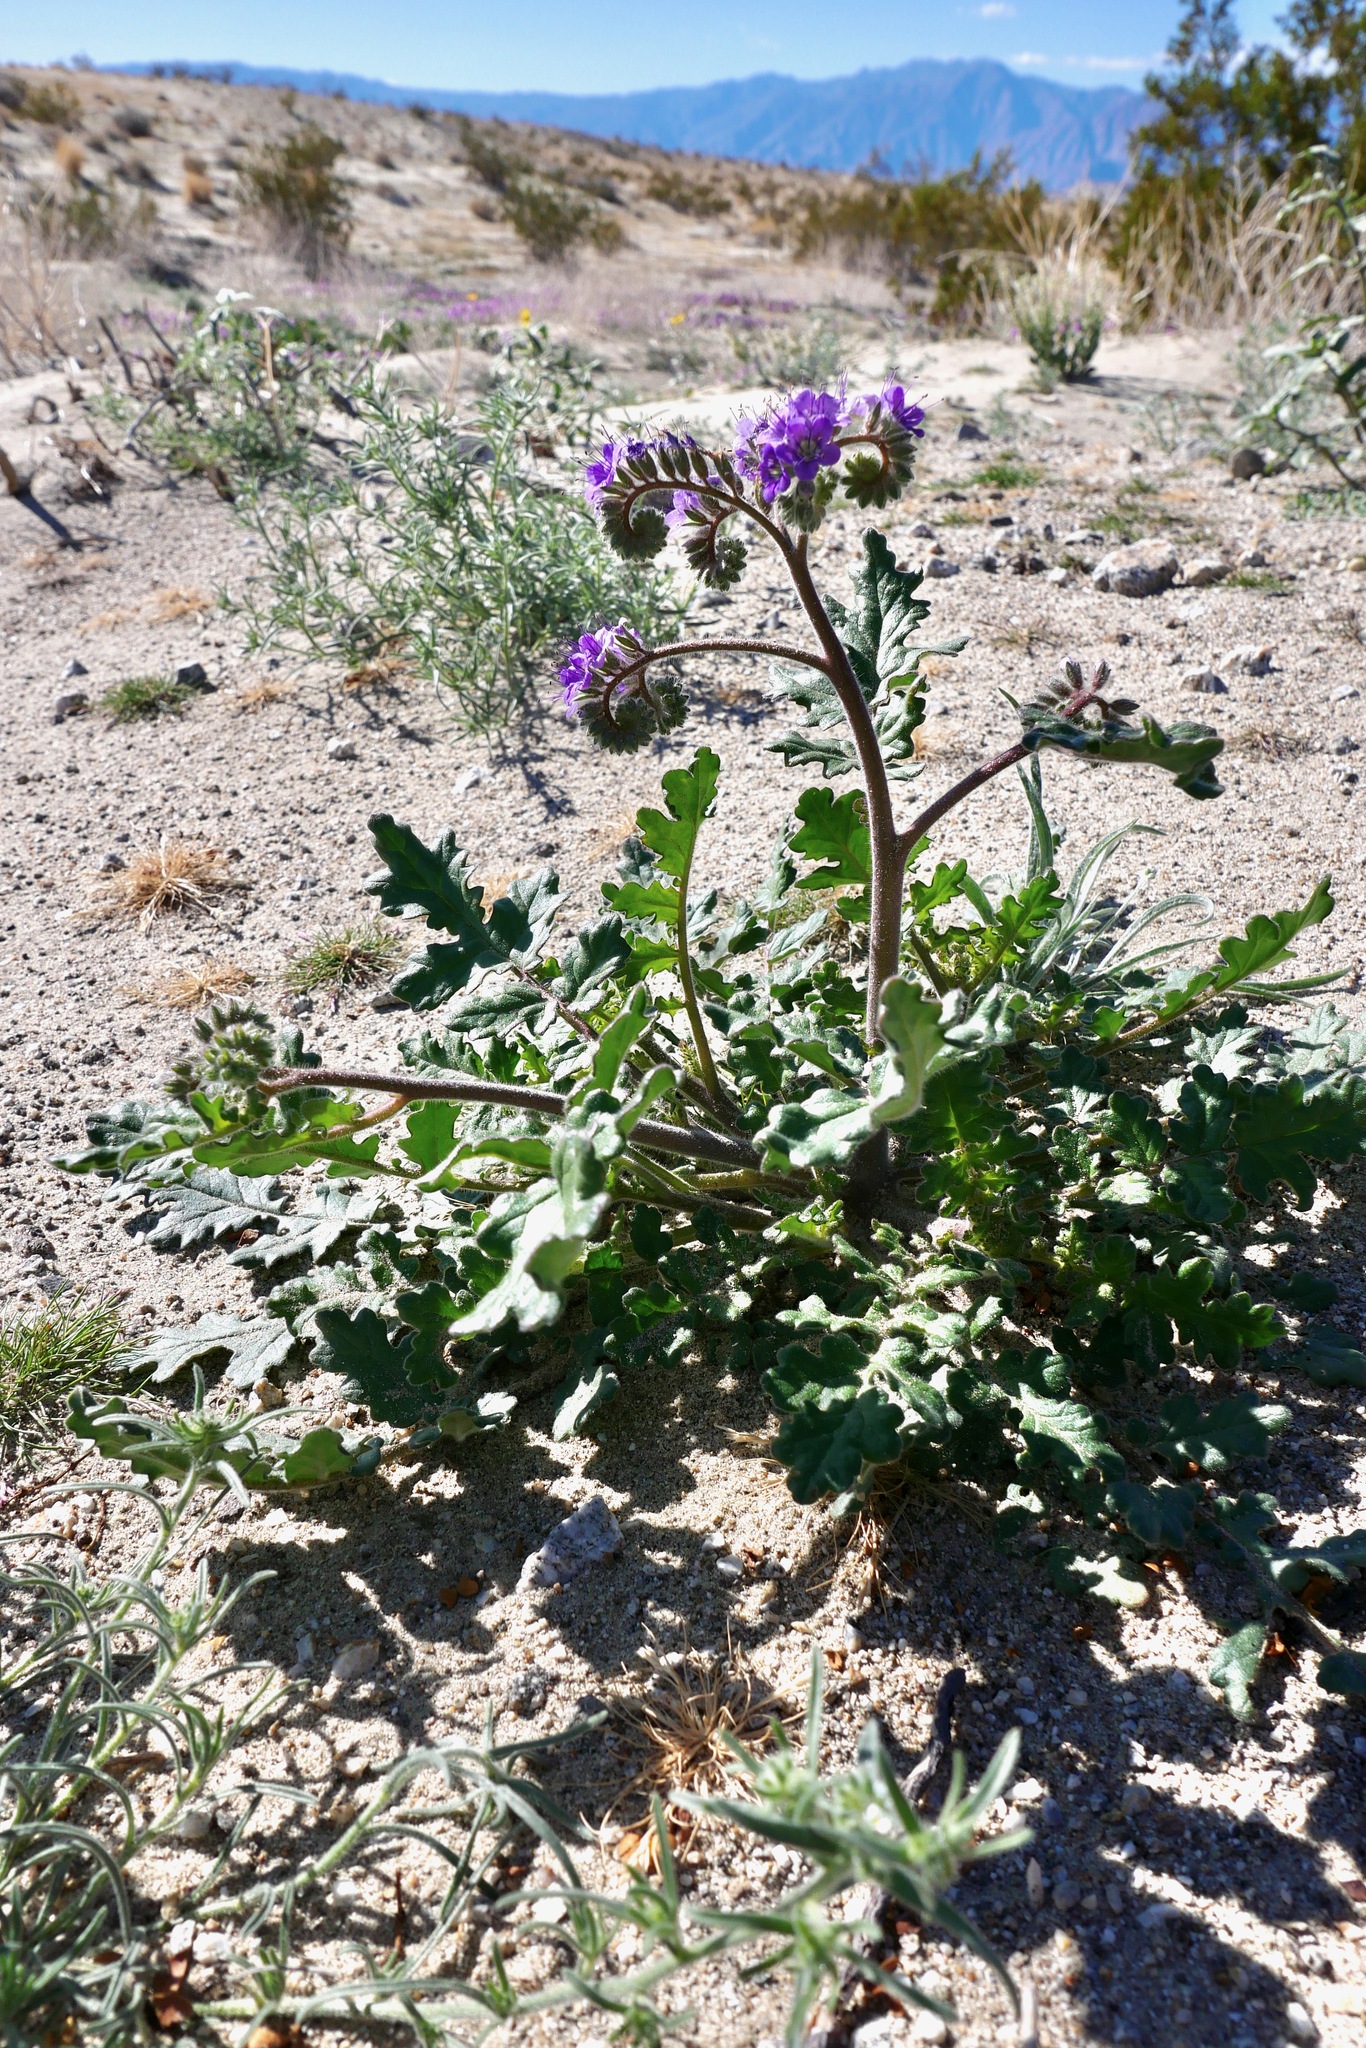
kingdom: Plantae
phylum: Tracheophyta
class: Magnoliopsida
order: Boraginales
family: Hydrophyllaceae
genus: Phacelia
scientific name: Phacelia crenulata
